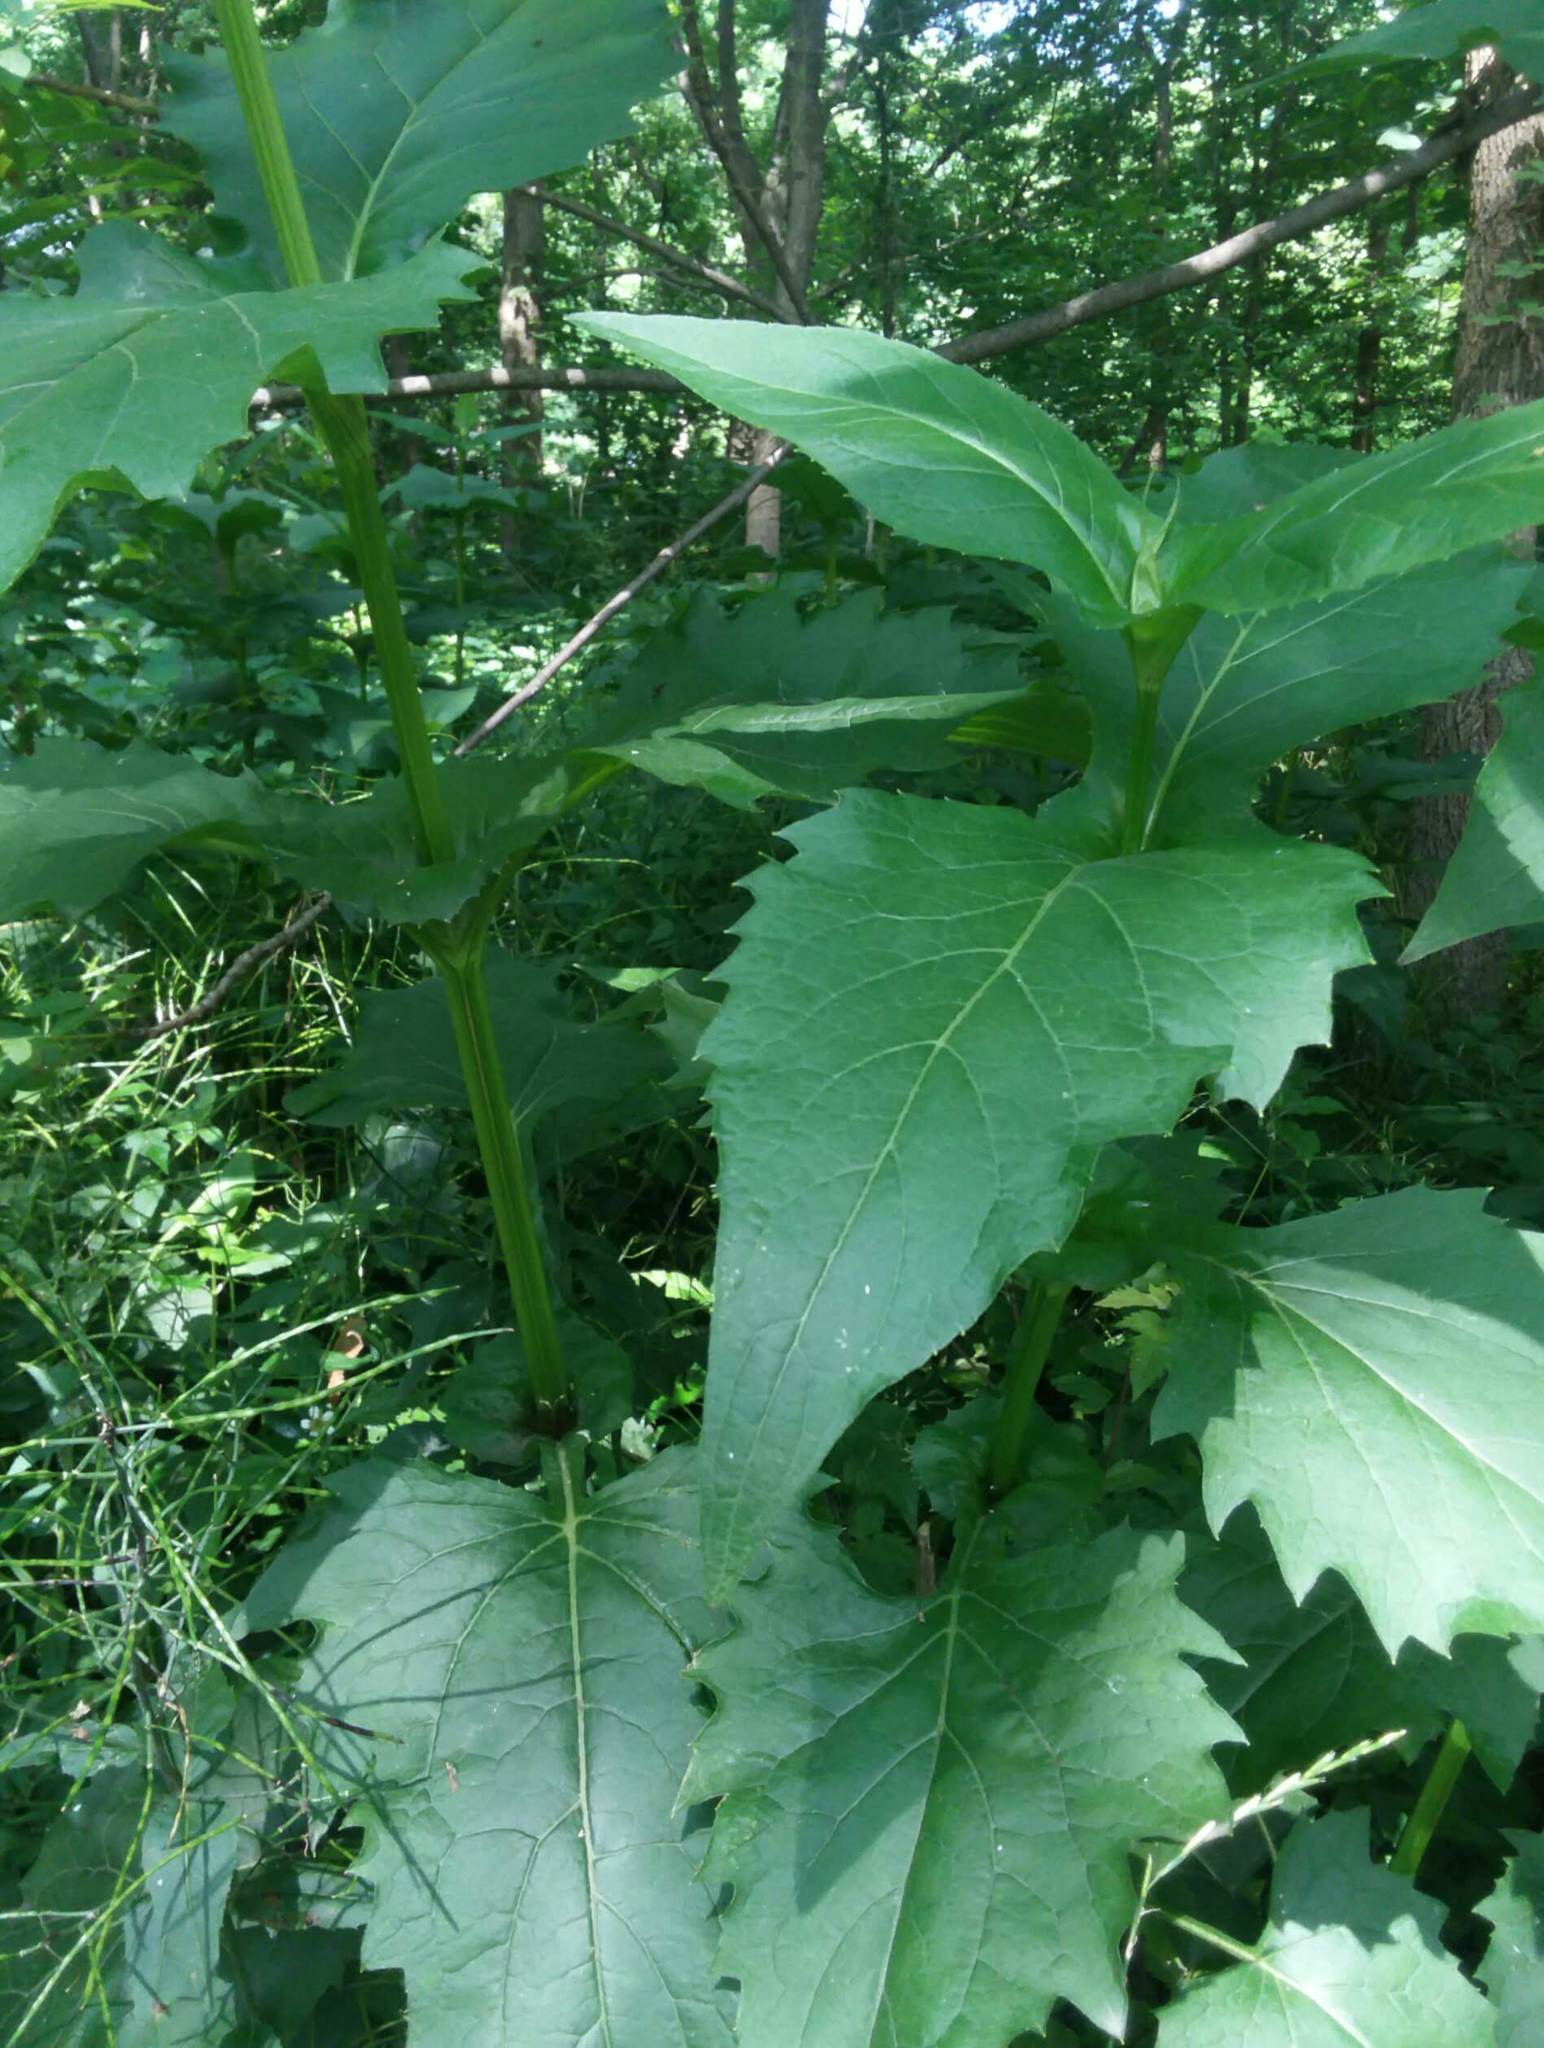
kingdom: Plantae
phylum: Tracheophyta
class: Magnoliopsida
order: Asterales
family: Asteraceae
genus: Silphium
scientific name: Silphium perfoliatum
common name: Cup-plant
